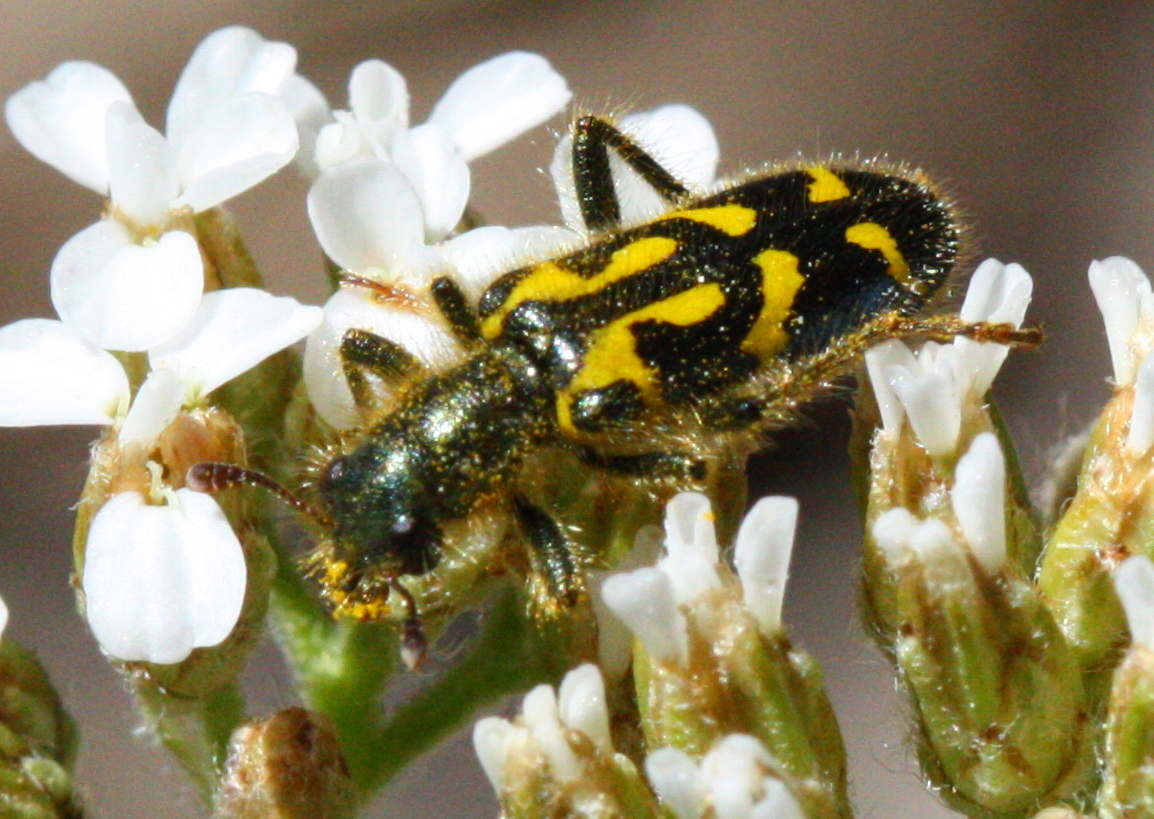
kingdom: Animalia
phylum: Arthropoda
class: Insecta
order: Coleoptera
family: Cleridae
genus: Trichodes
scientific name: Trichodes ornatus
